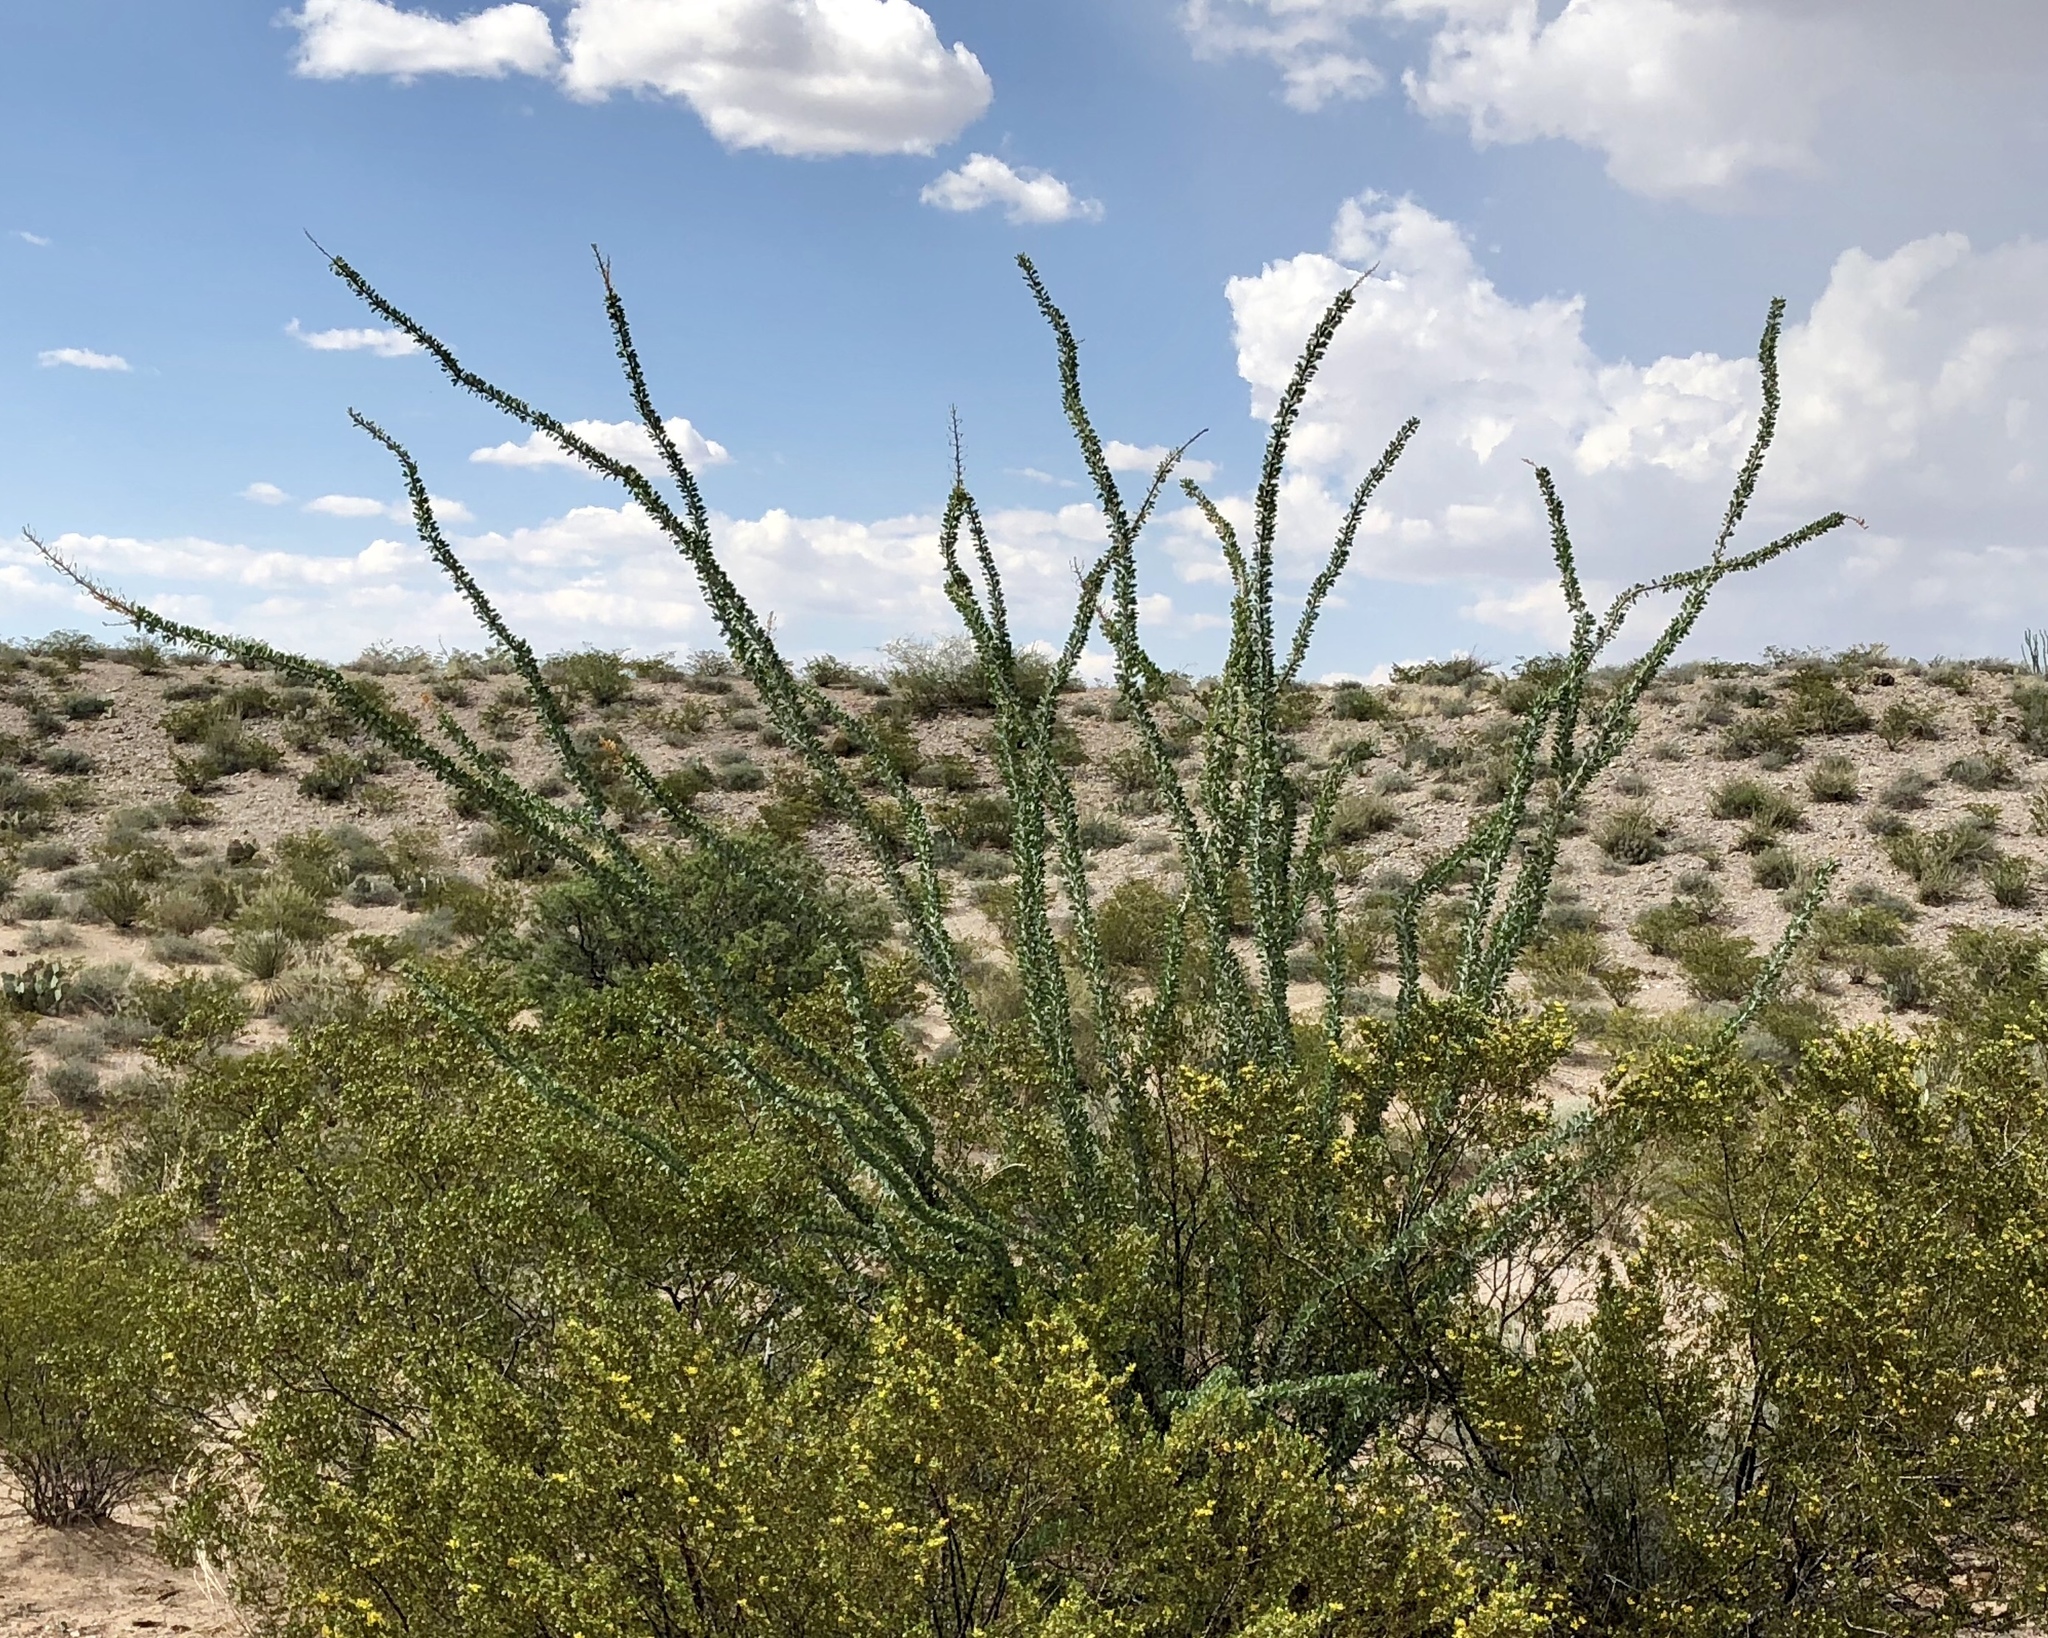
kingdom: Plantae
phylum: Tracheophyta
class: Magnoliopsida
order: Ericales
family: Fouquieriaceae
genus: Fouquieria
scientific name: Fouquieria splendens
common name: Vine-cactus
